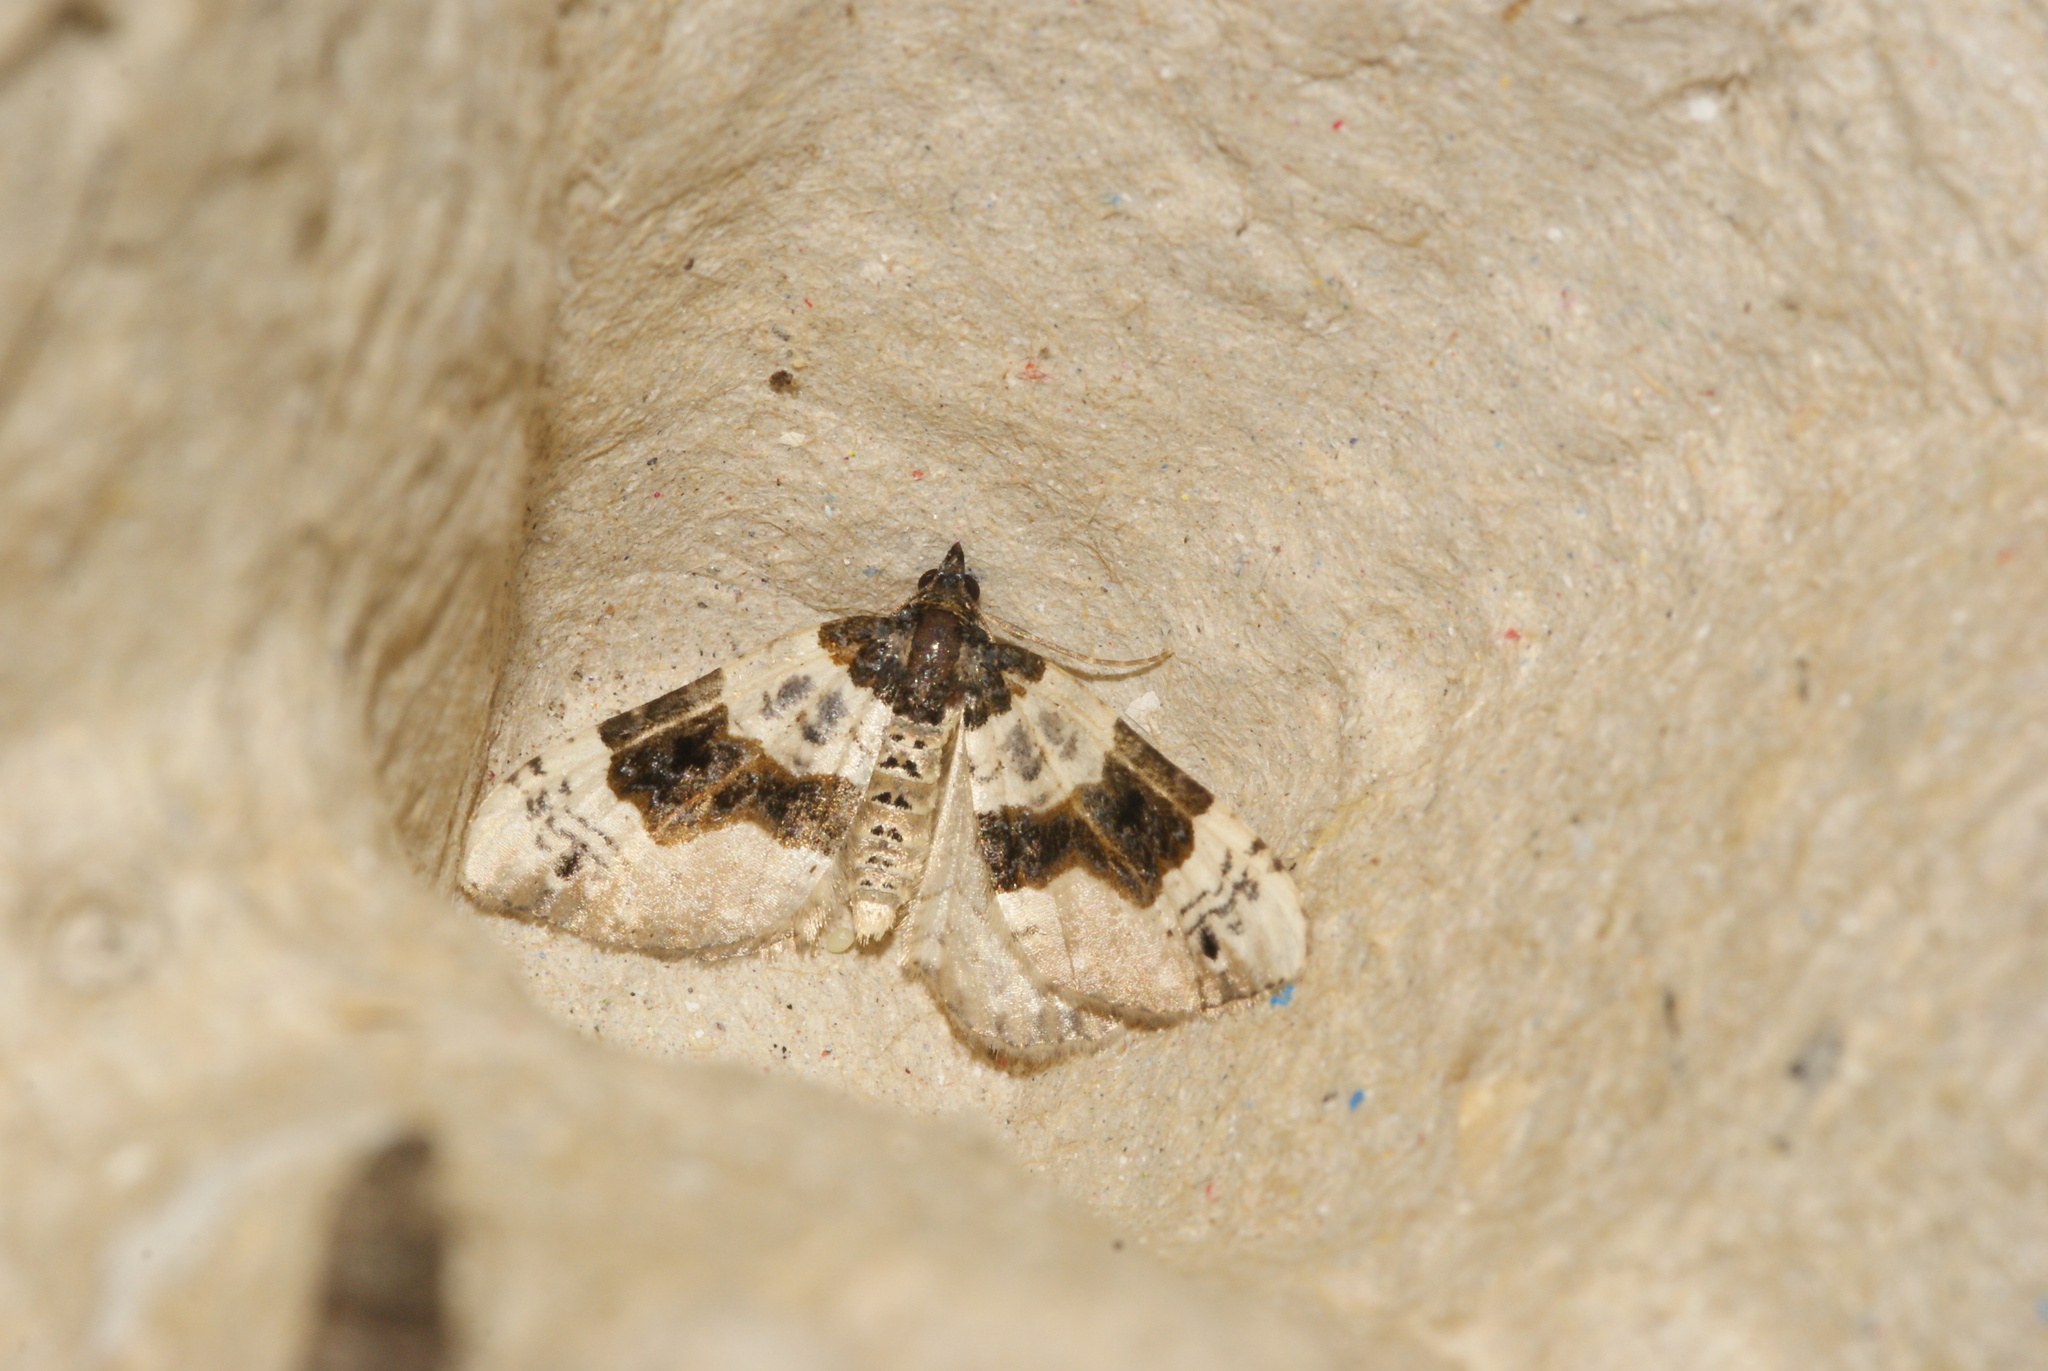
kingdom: Animalia
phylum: Arthropoda
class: Insecta
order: Lepidoptera
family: Geometridae
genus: Cosmorhoe
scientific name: Cosmorhoe ocellata
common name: Purple bar
